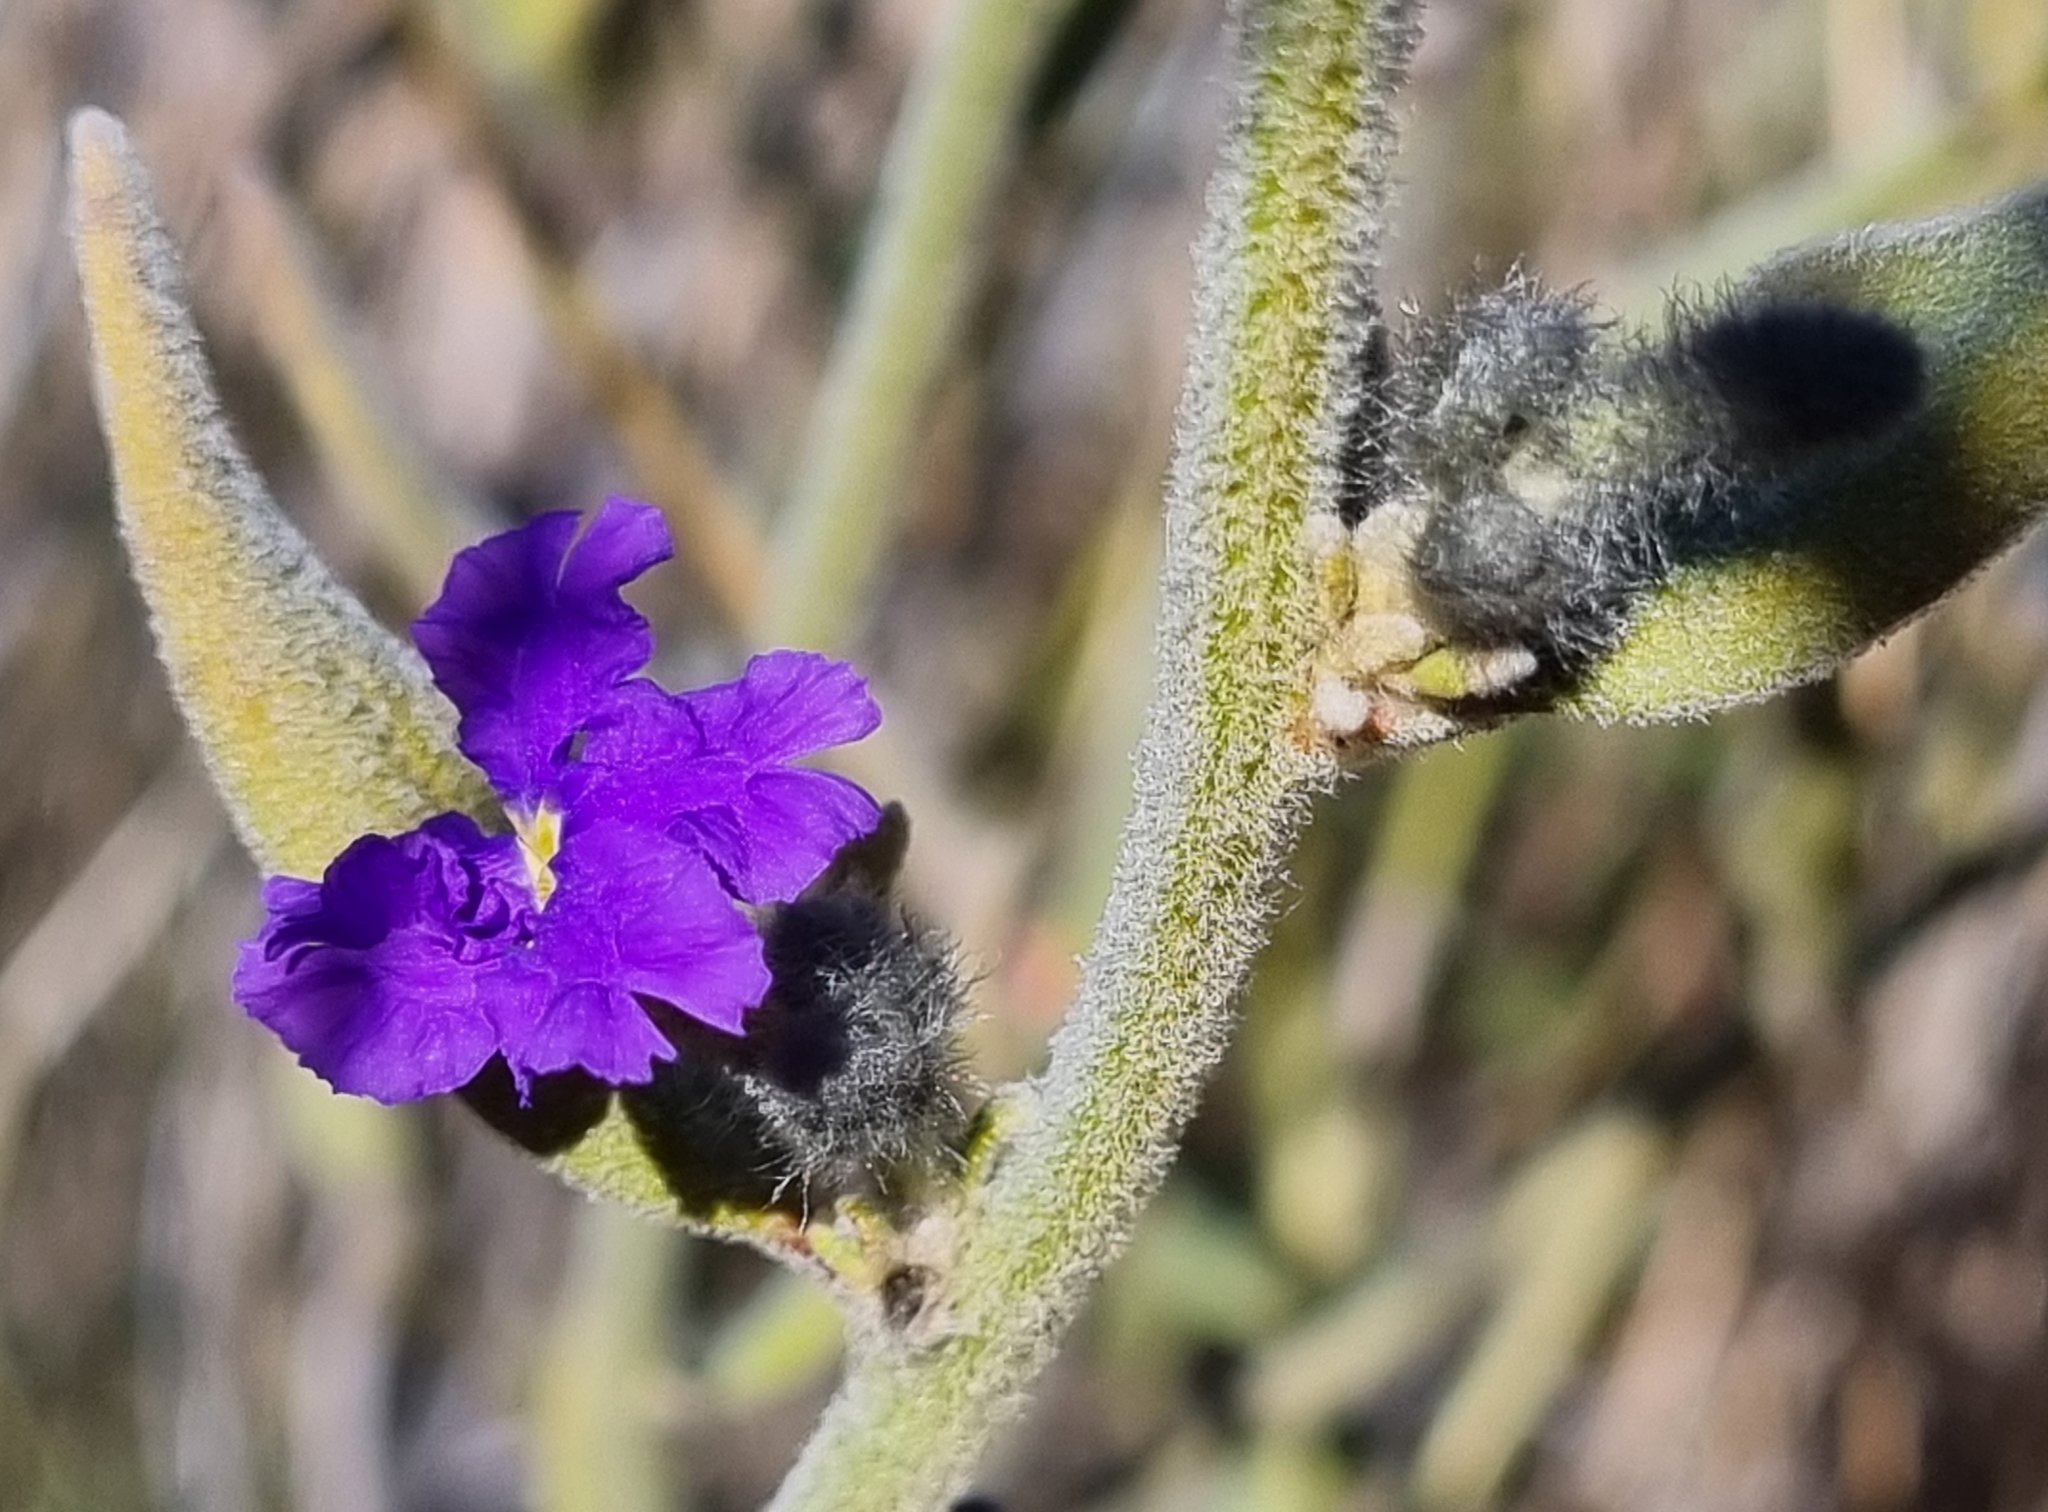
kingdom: Plantae
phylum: Tracheophyta
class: Magnoliopsida
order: Asterales
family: Goodeniaceae
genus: Dampiera
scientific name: Dampiera lanceolata
